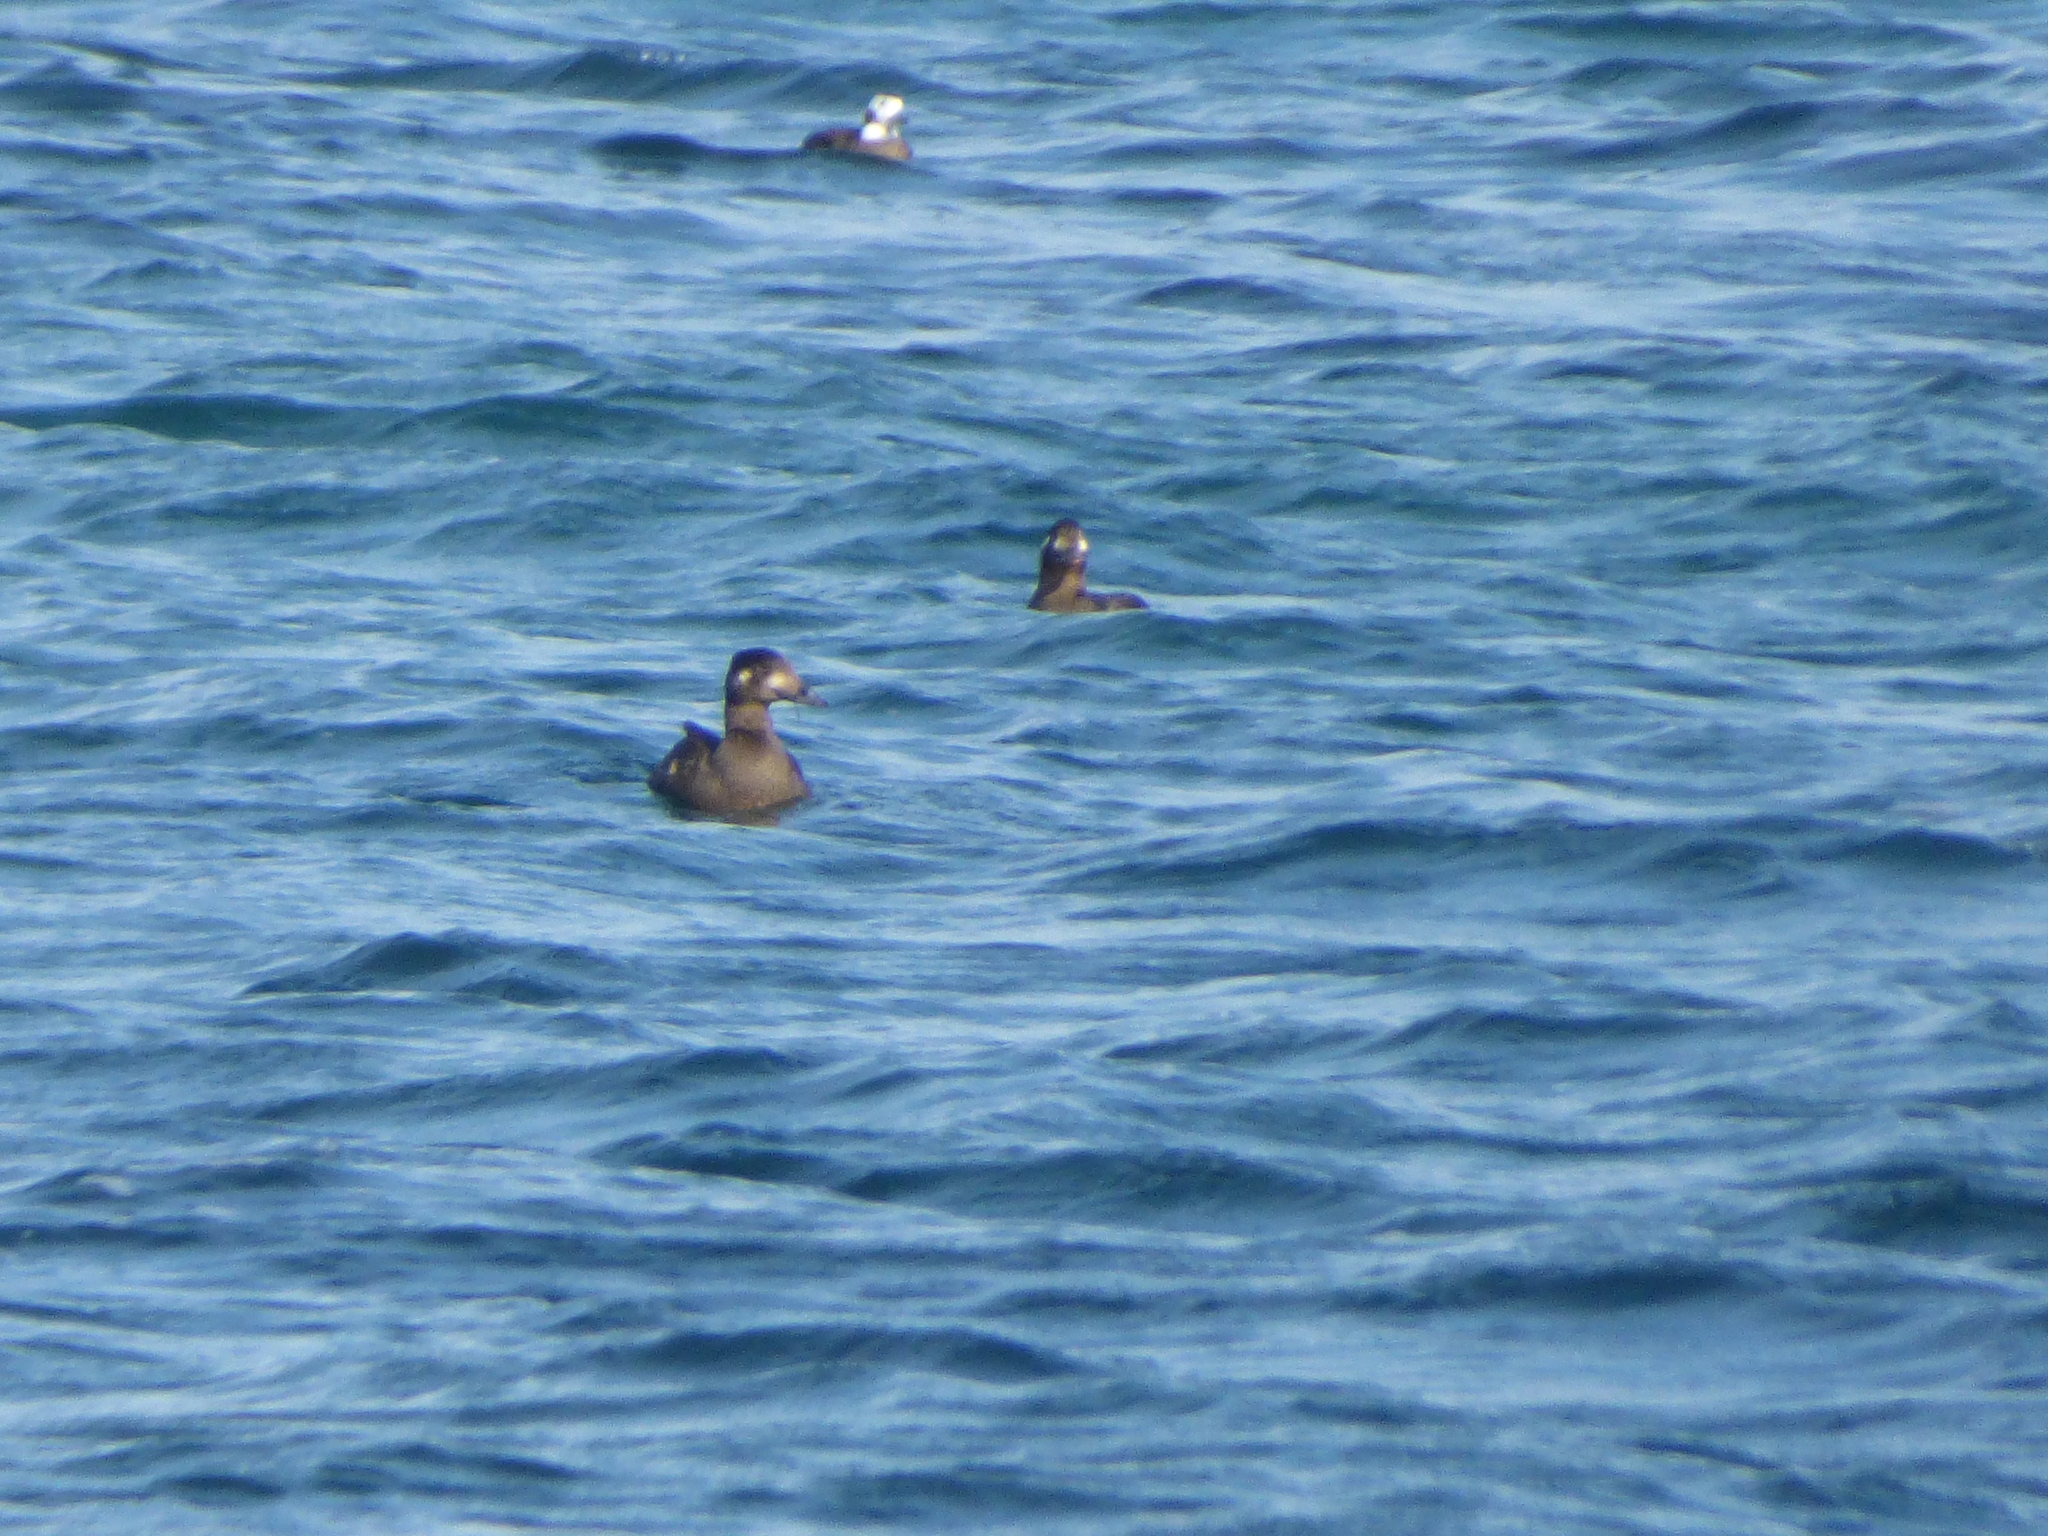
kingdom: Animalia
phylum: Chordata
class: Aves
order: Anseriformes
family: Anatidae
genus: Melanitta
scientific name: Melanitta deglandi
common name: White-winged scoter
